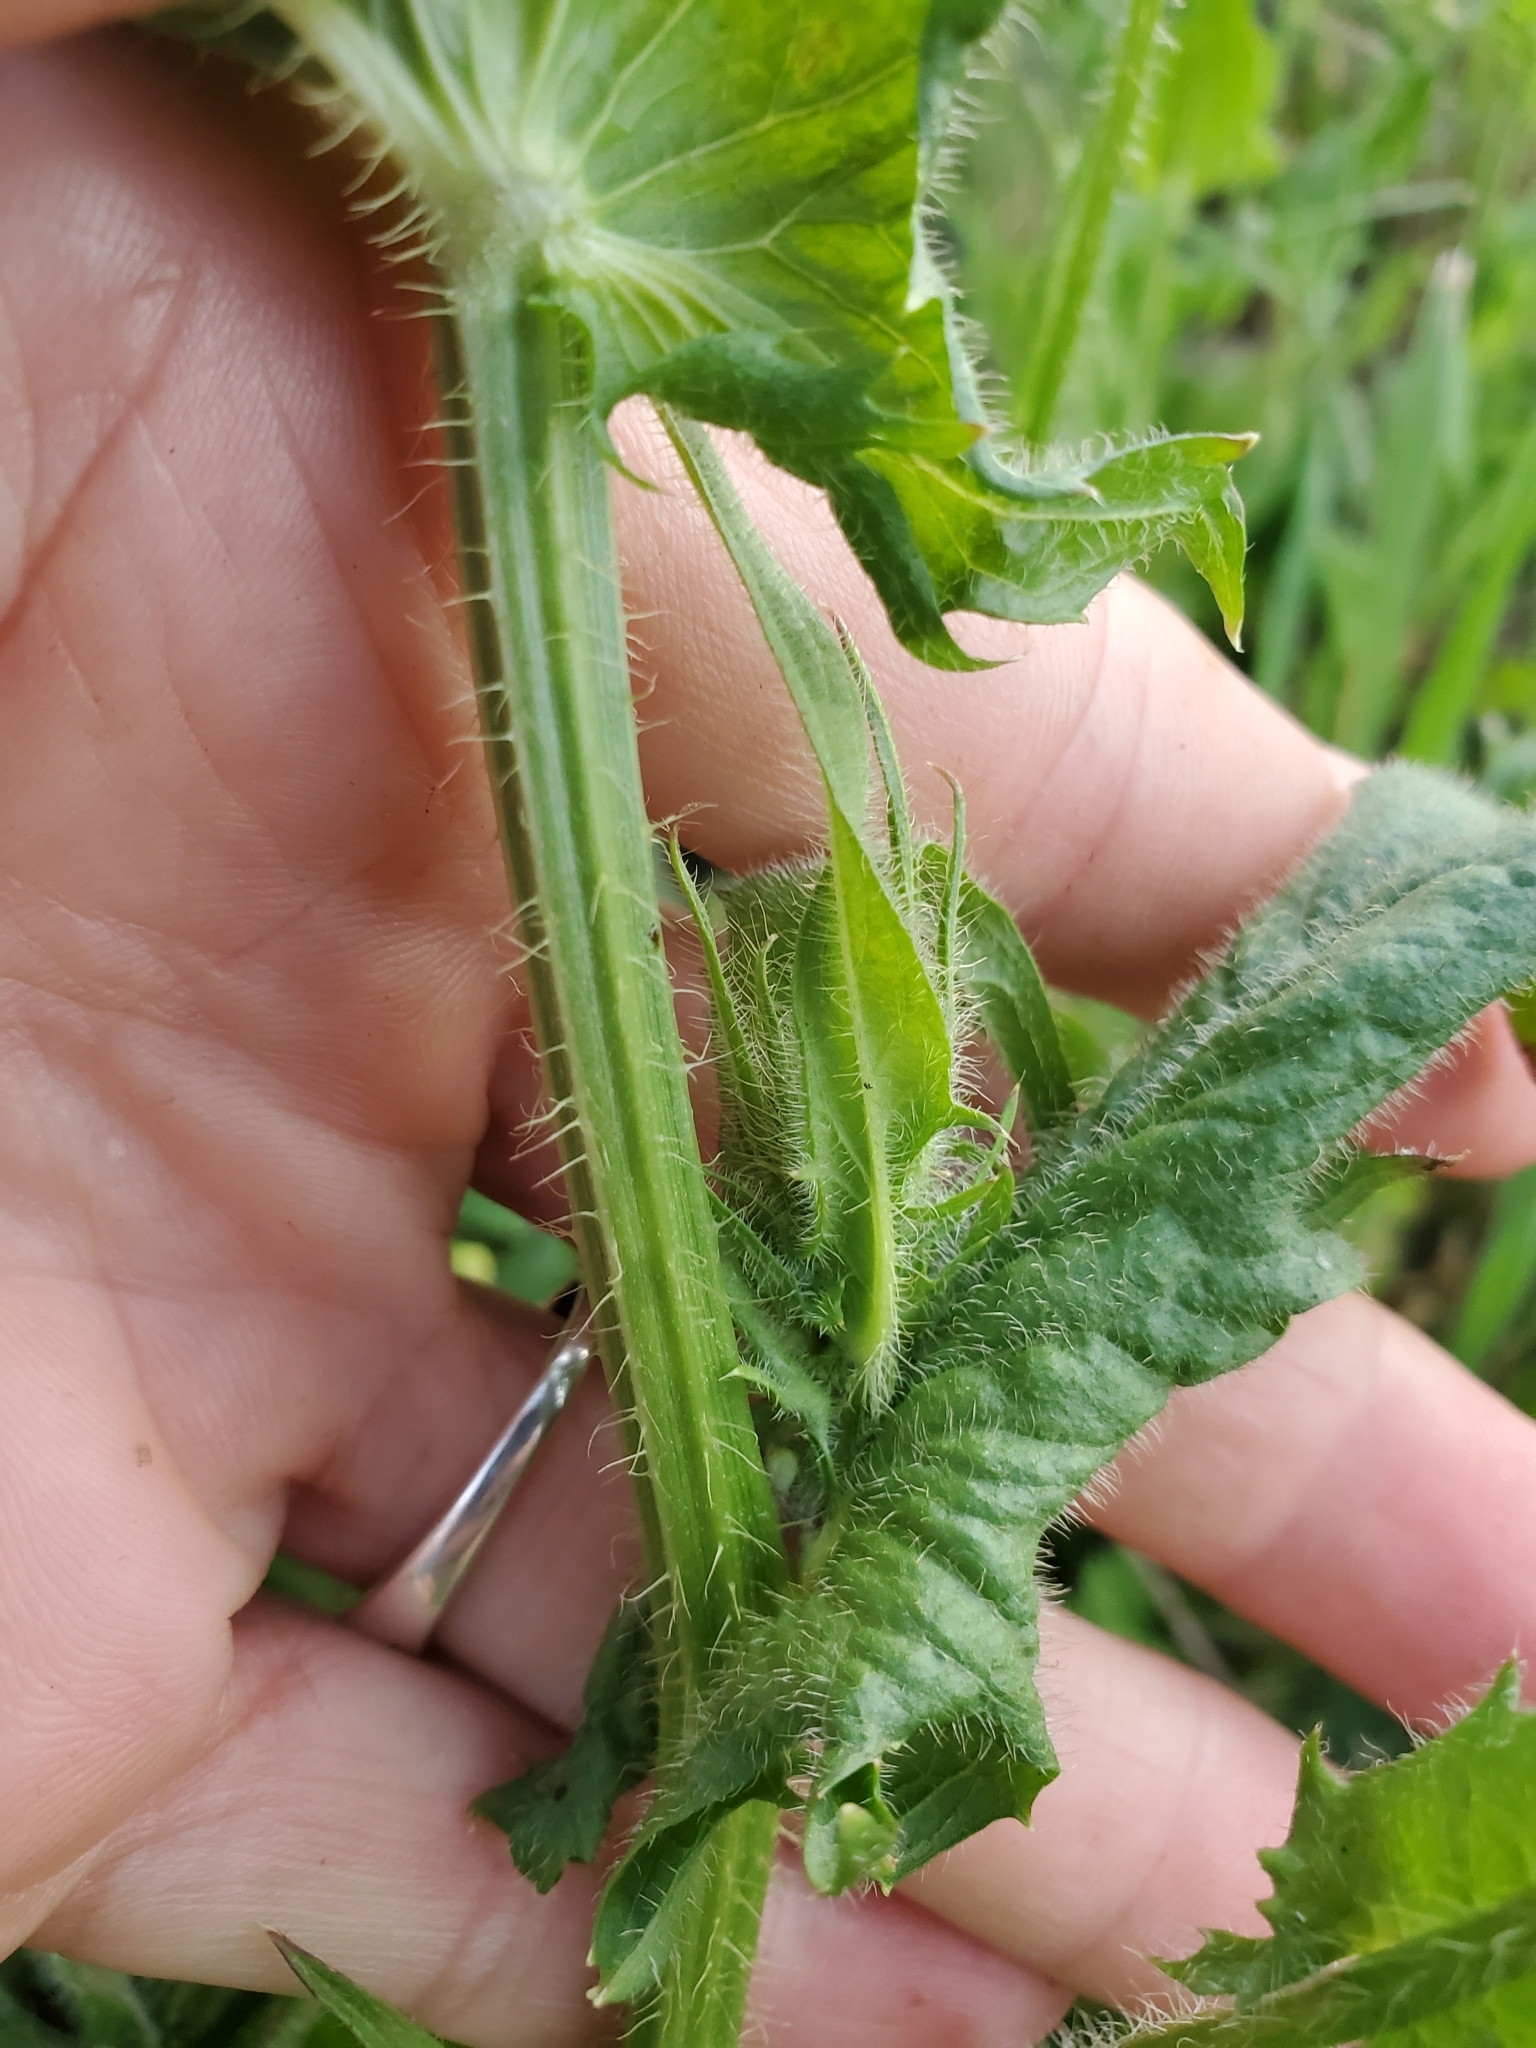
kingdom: Plantae
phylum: Tracheophyta
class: Magnoliopsida
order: Asterales
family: Asteraceae
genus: Crepis
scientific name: Crepis setosa
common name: Bristly hawk's-beard
